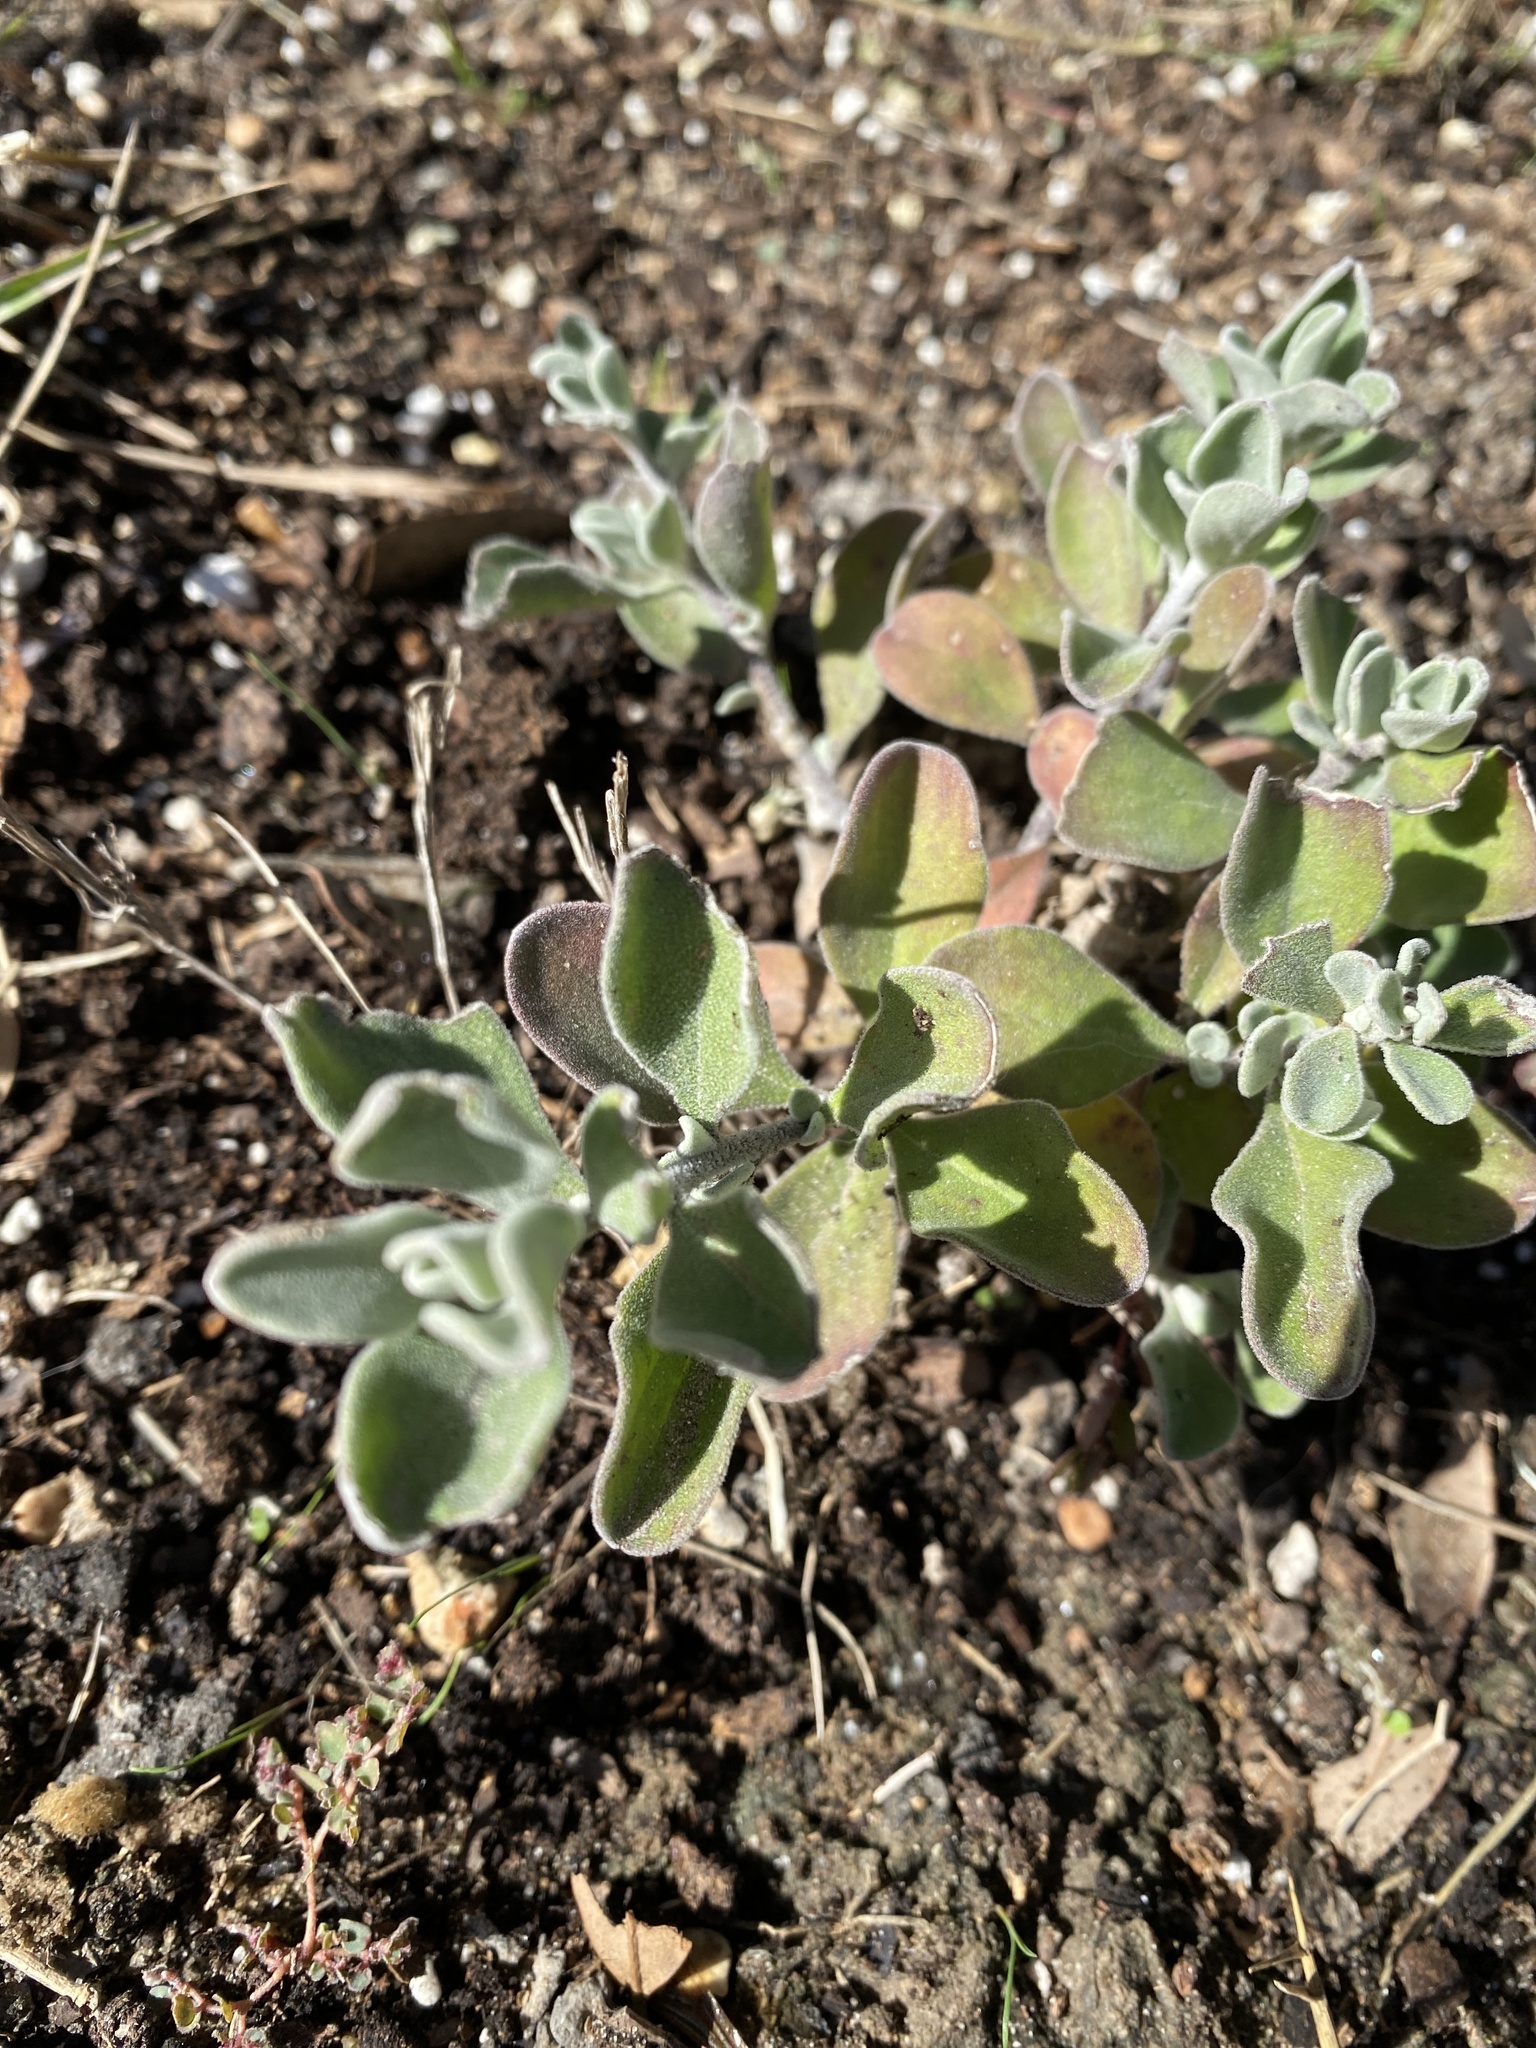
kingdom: Plantae
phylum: Tracheophyta
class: Magnoliopsida
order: Lamiales
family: Scrophulariaceae
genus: Leucophyllum
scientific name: Leucophyllum frutescens
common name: Texas silverleaf
